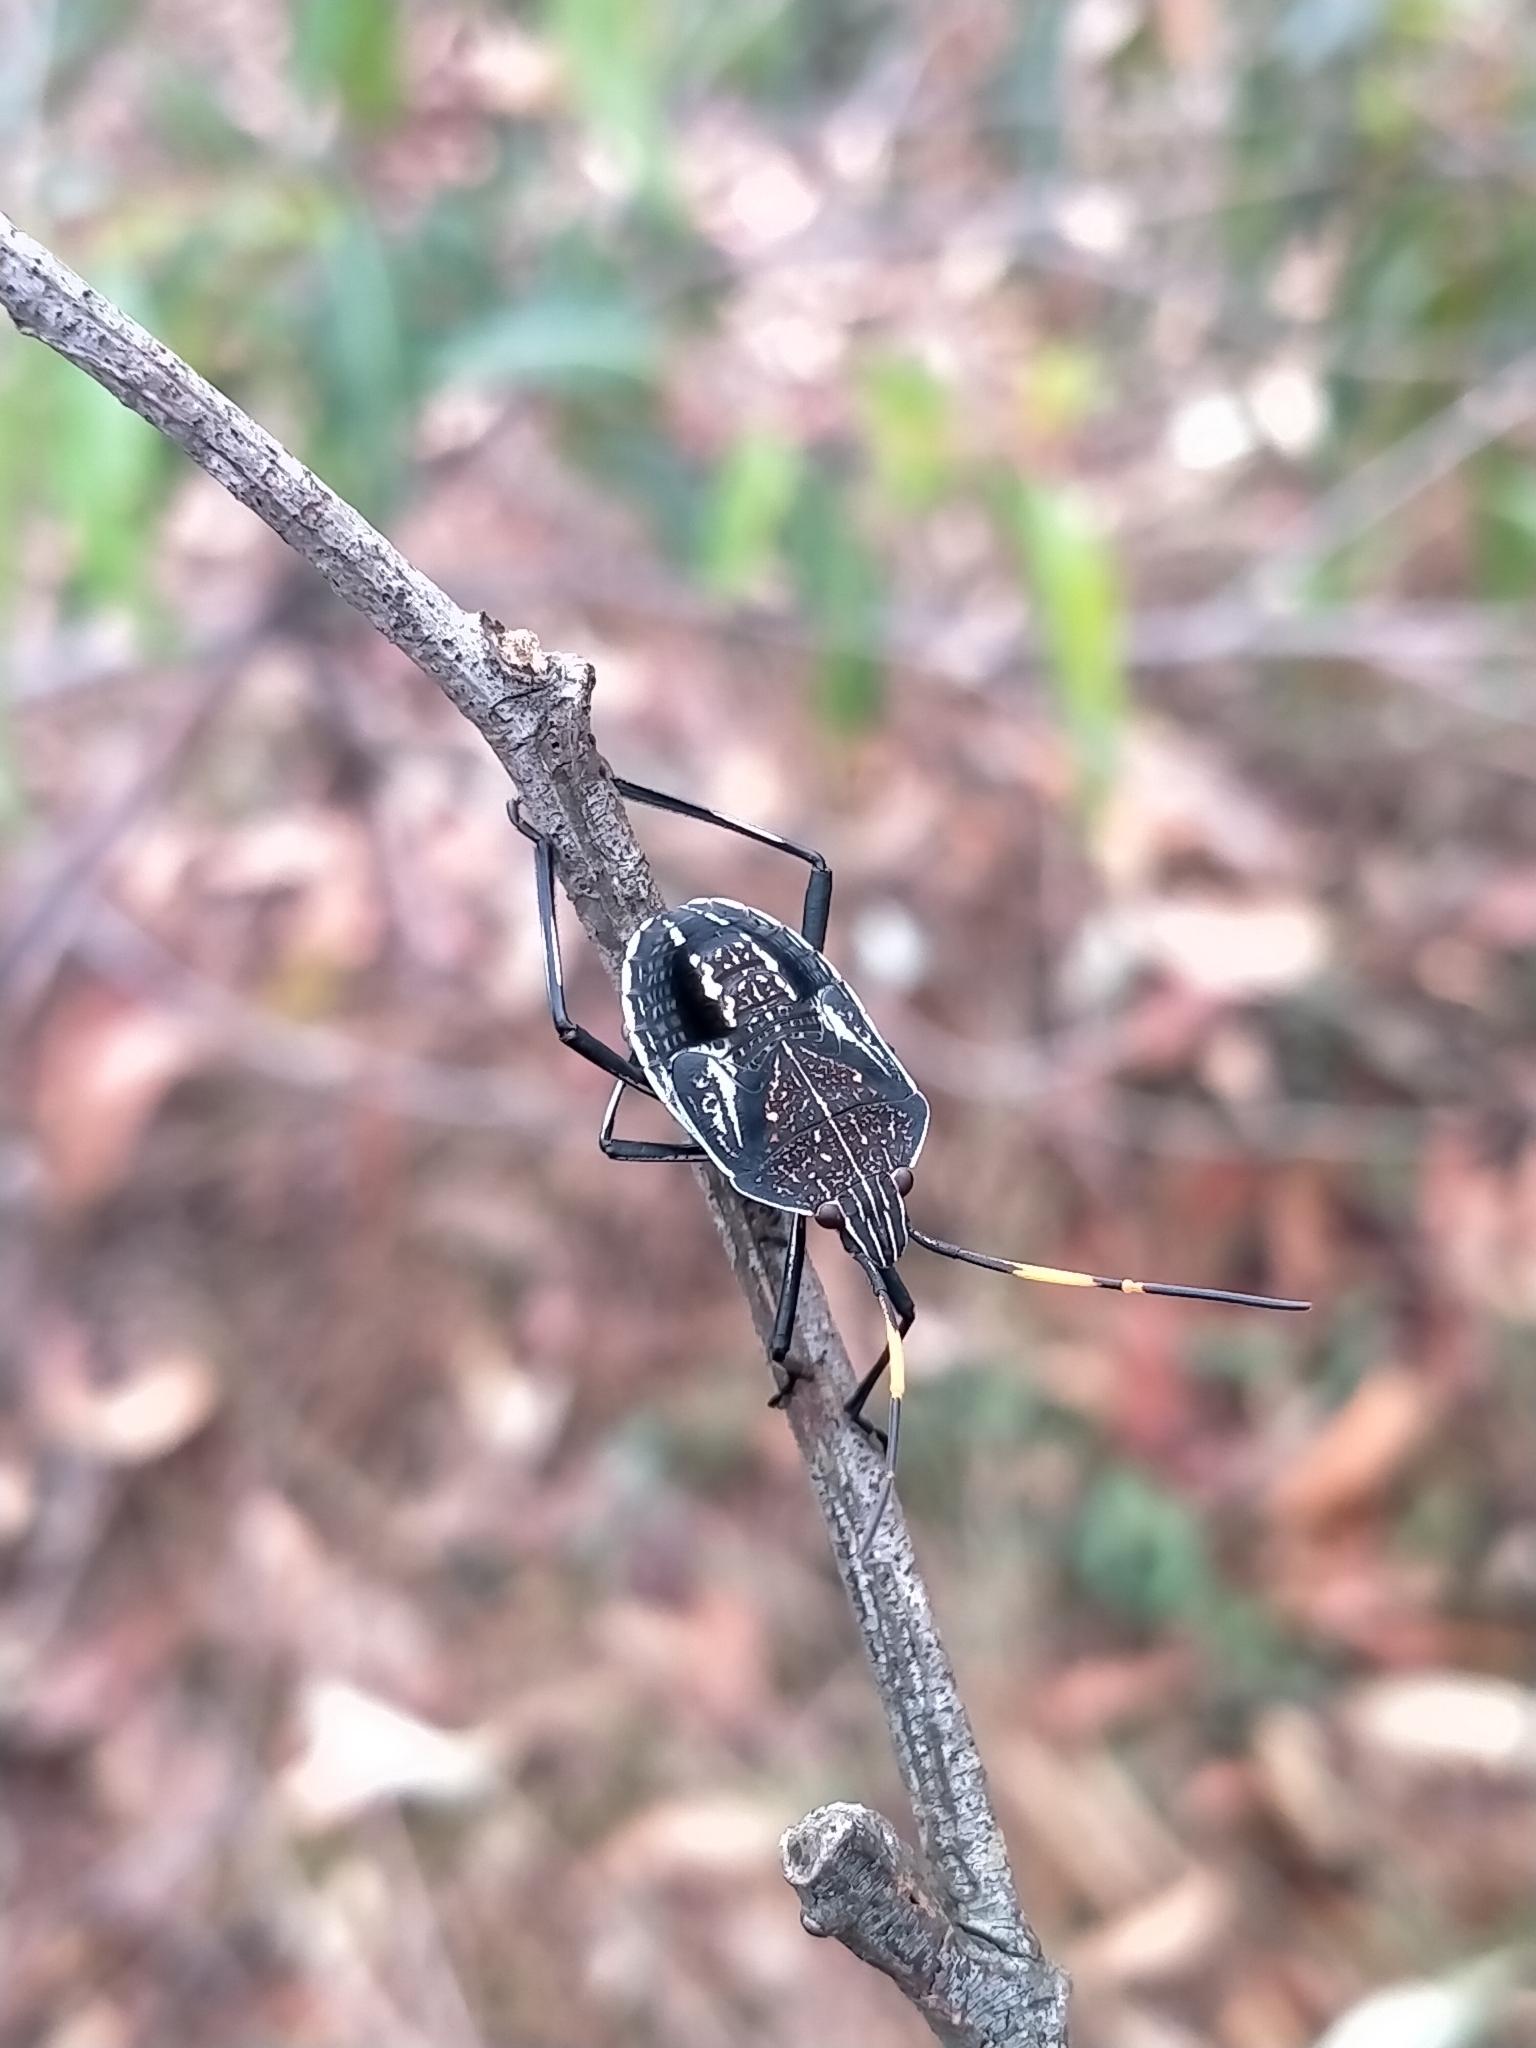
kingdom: Animalia
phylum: Arthropoda
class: Insecta
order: Hemiptera
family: Pentatomidae
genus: Poecilometis
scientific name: Poecilometis
